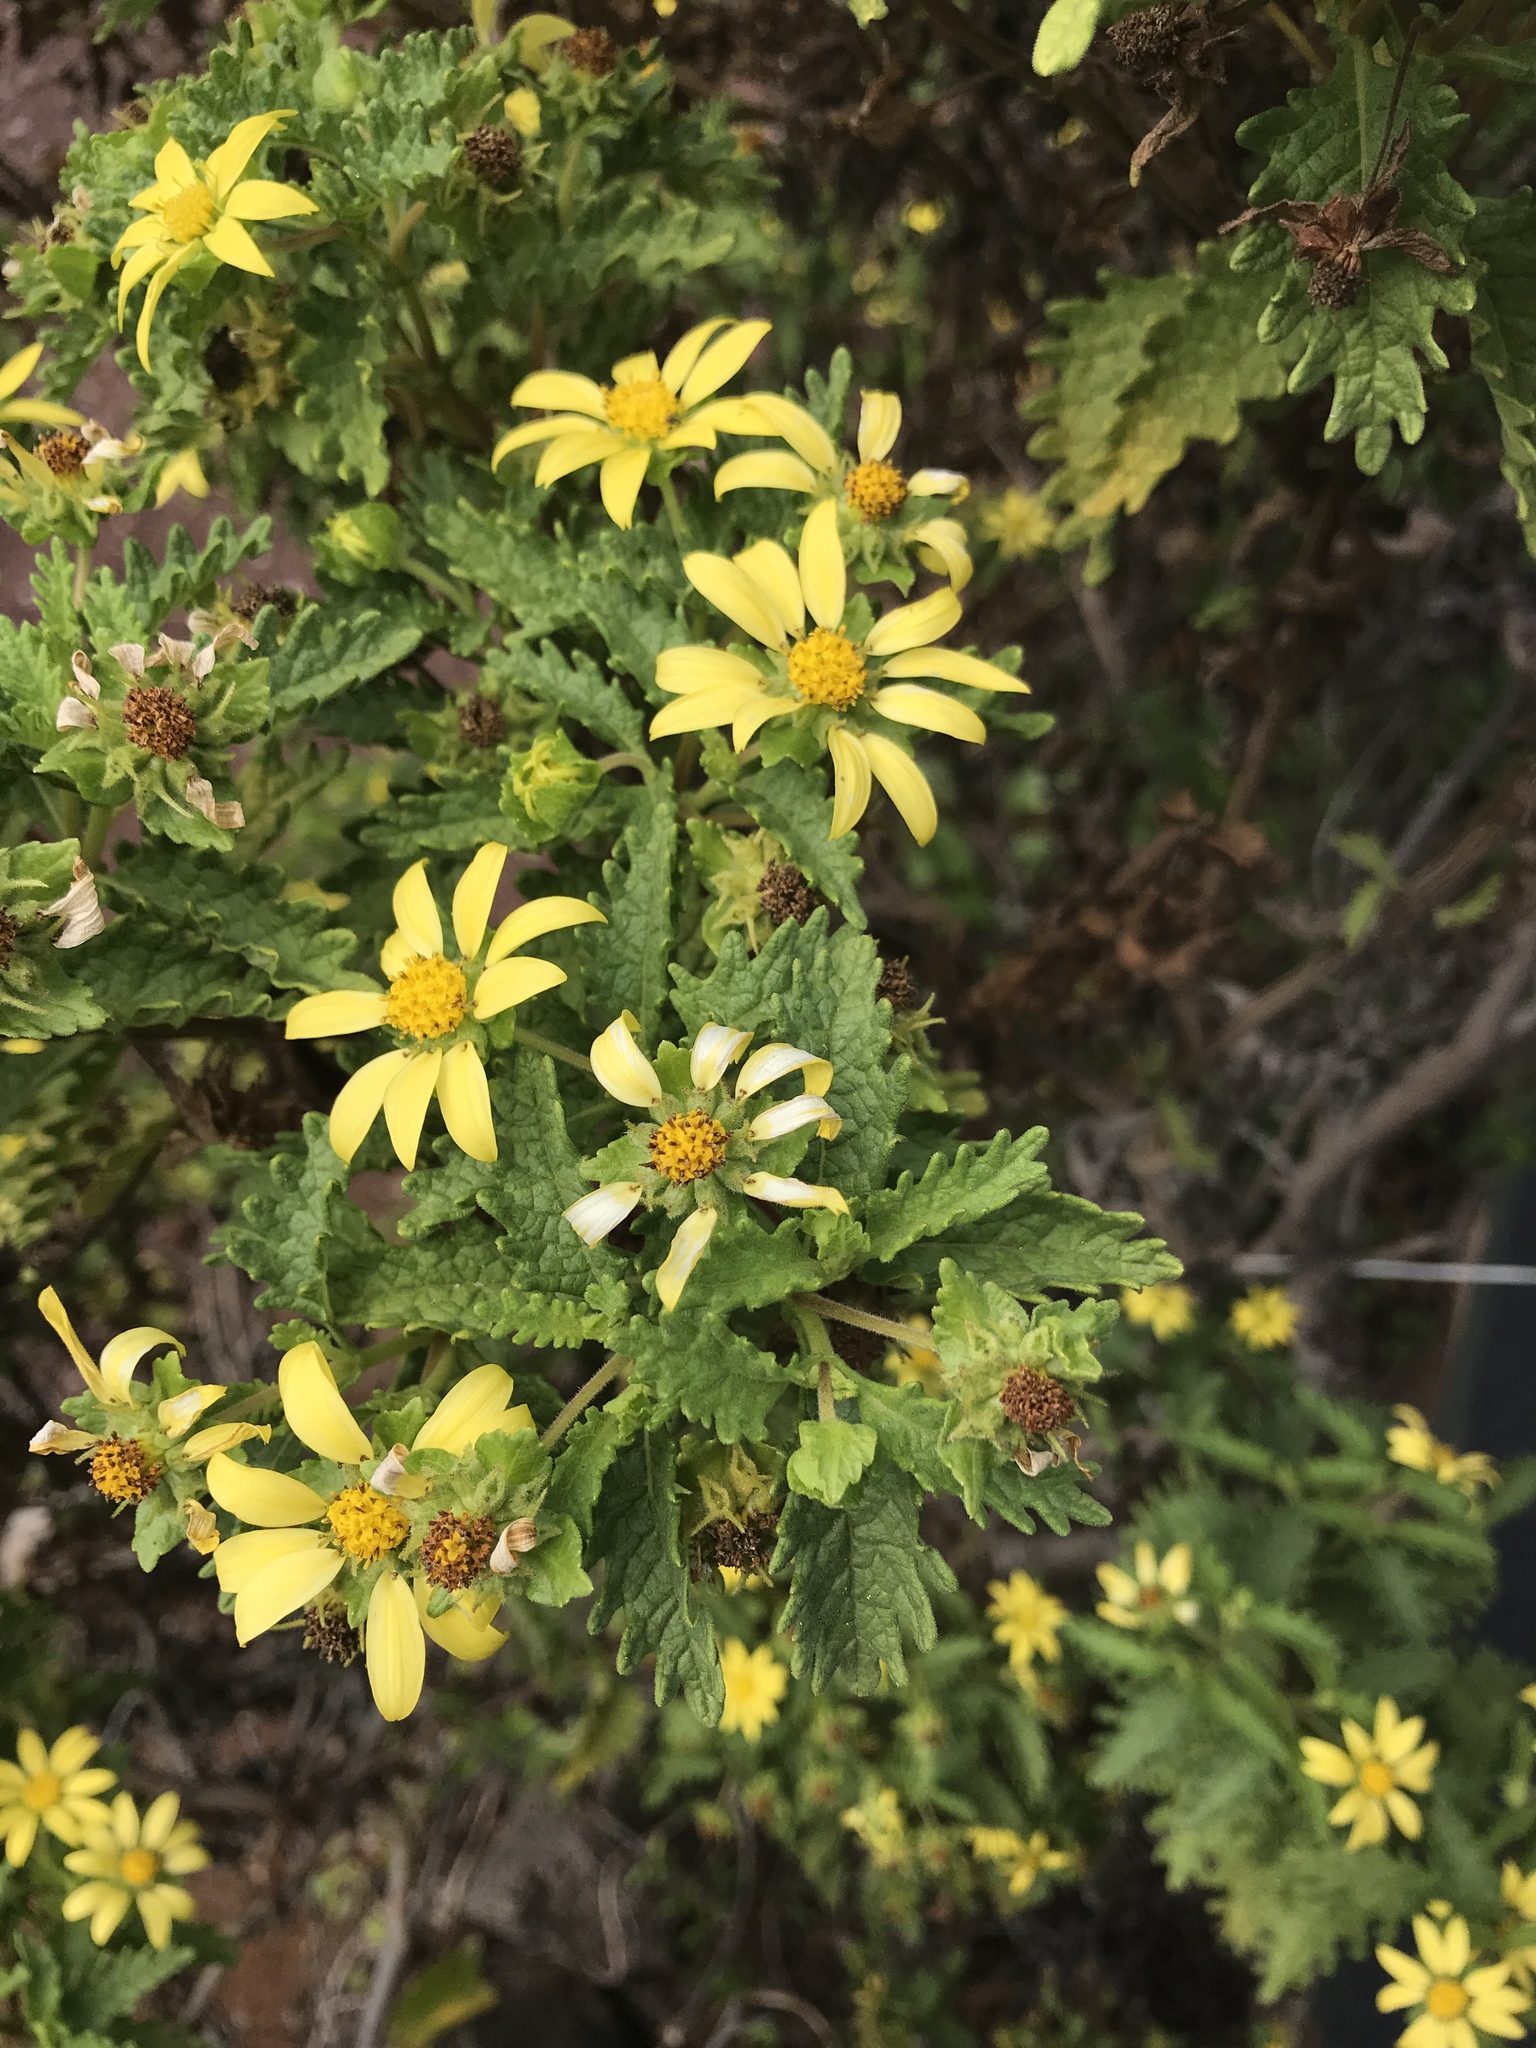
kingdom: Plantae
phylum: Tracheophyta
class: Magnoliopsida
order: Asterales
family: Asteraceae
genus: Lecocarpus
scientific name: Lecocarpus darwinii
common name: Cut leaf daisy
